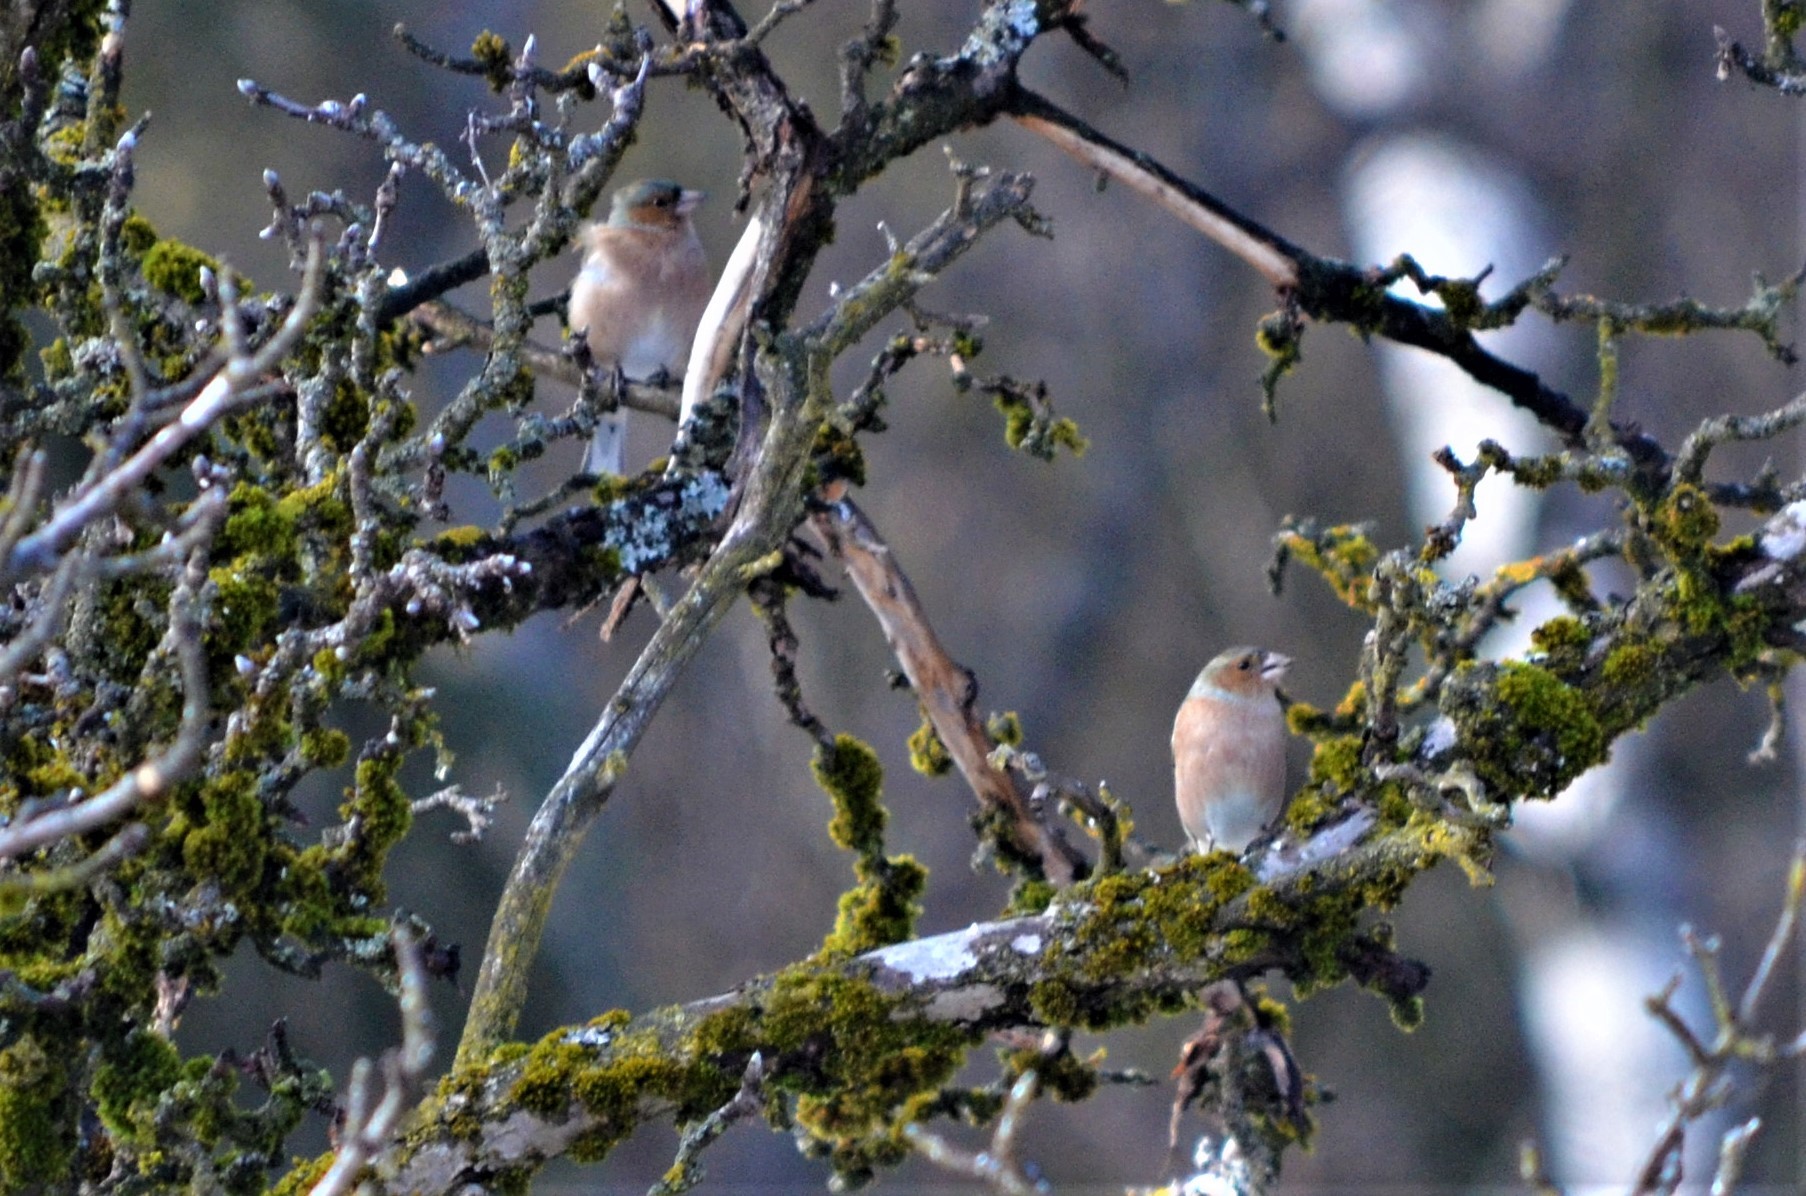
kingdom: Animalia
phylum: Chordata
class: Aves
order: Passeriformes
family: Fringillidae
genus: Fringilla
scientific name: Fringilla coelebs
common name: Common chaffinch
